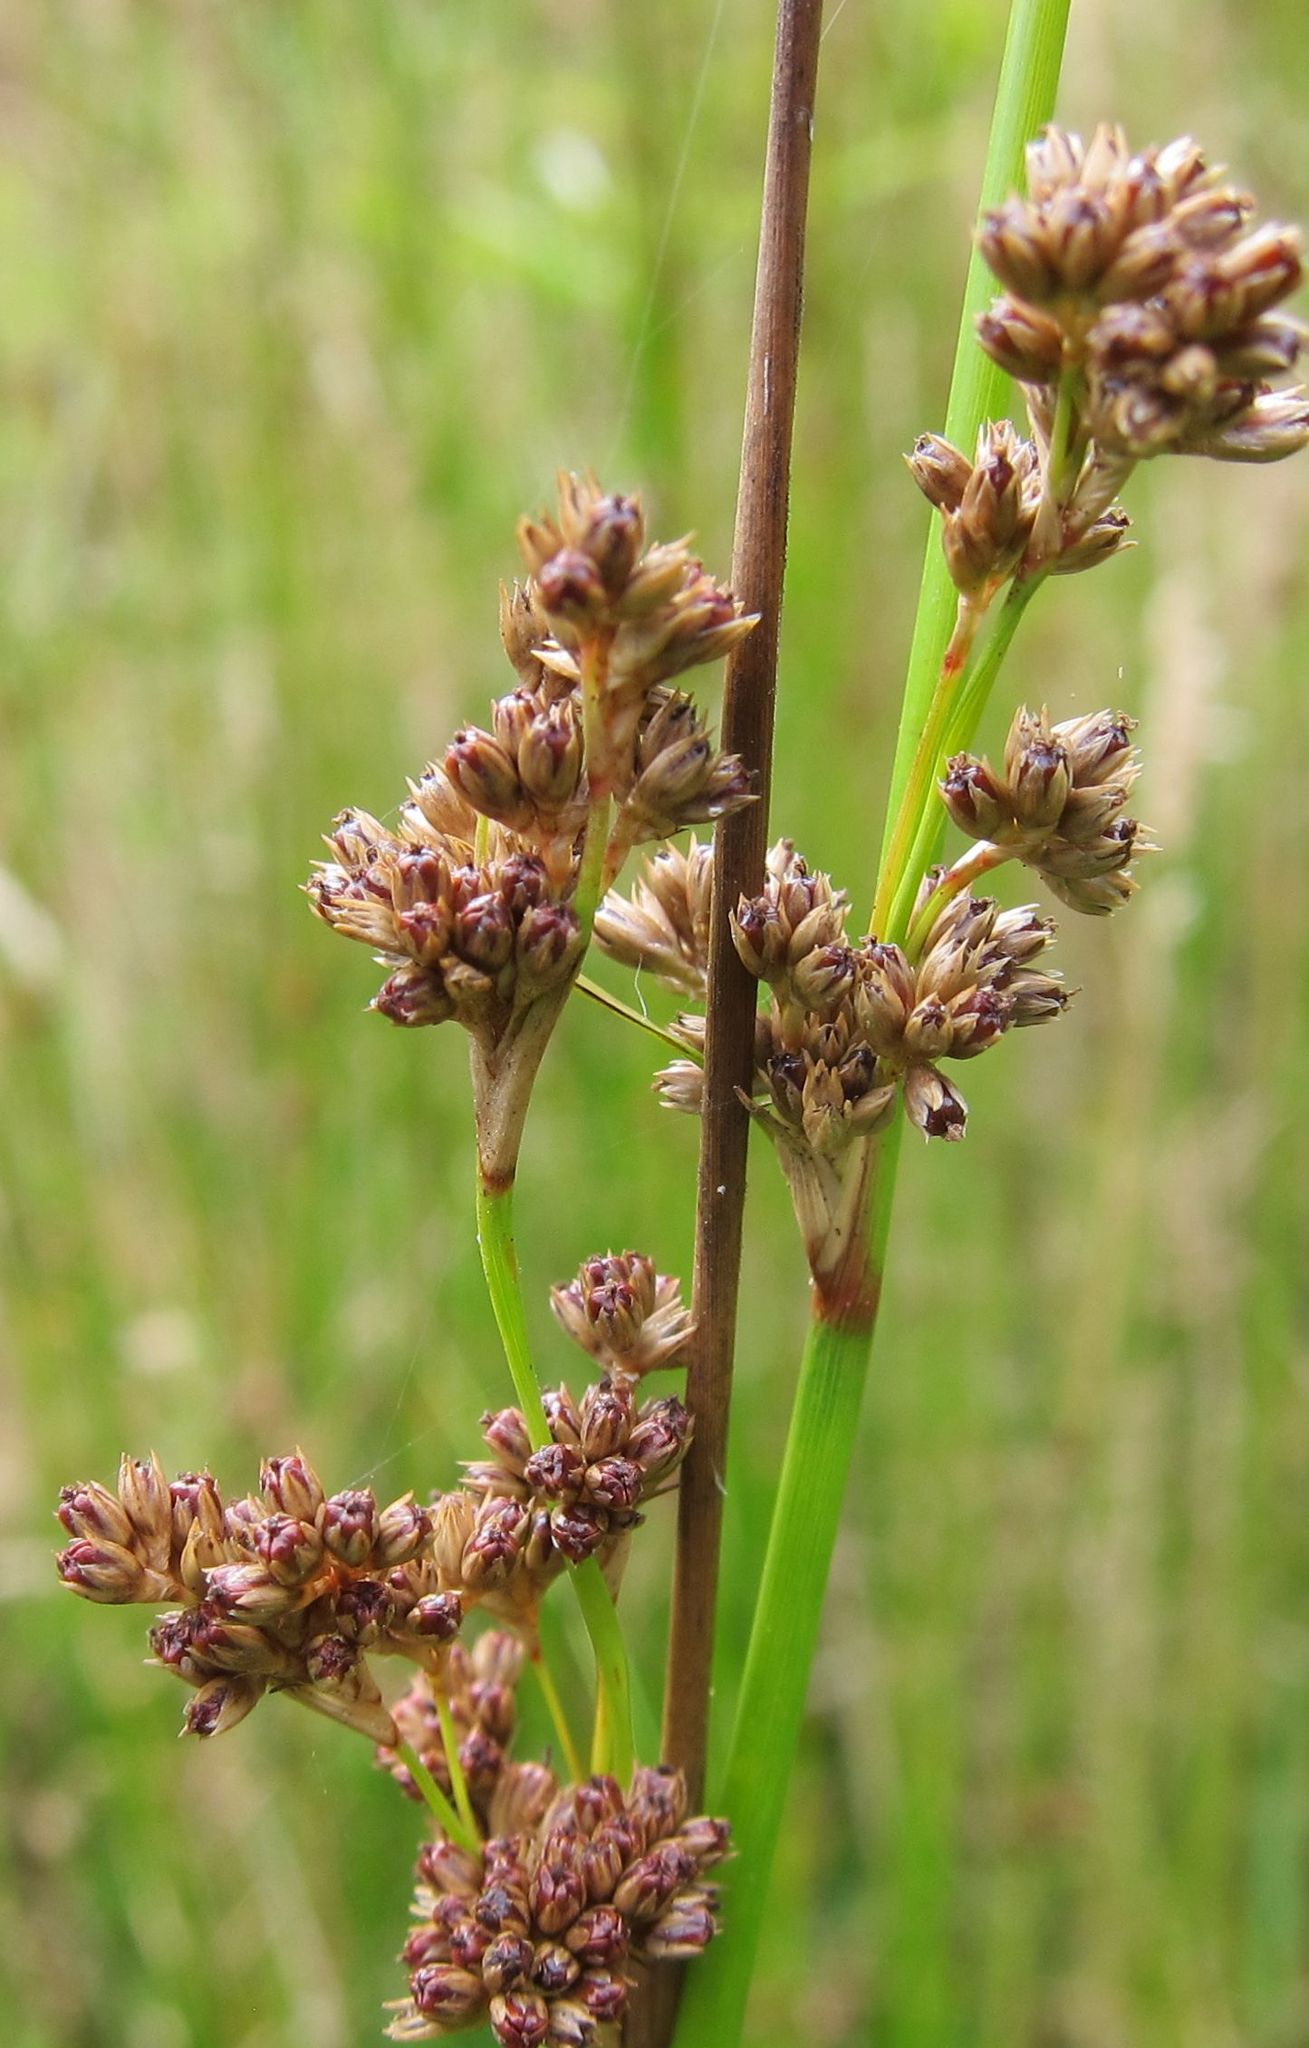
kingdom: Plantae
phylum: Tracheophyta
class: Liliopsida
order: Poales
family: Juncaceae
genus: Juncus
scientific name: Juncus edgariae
